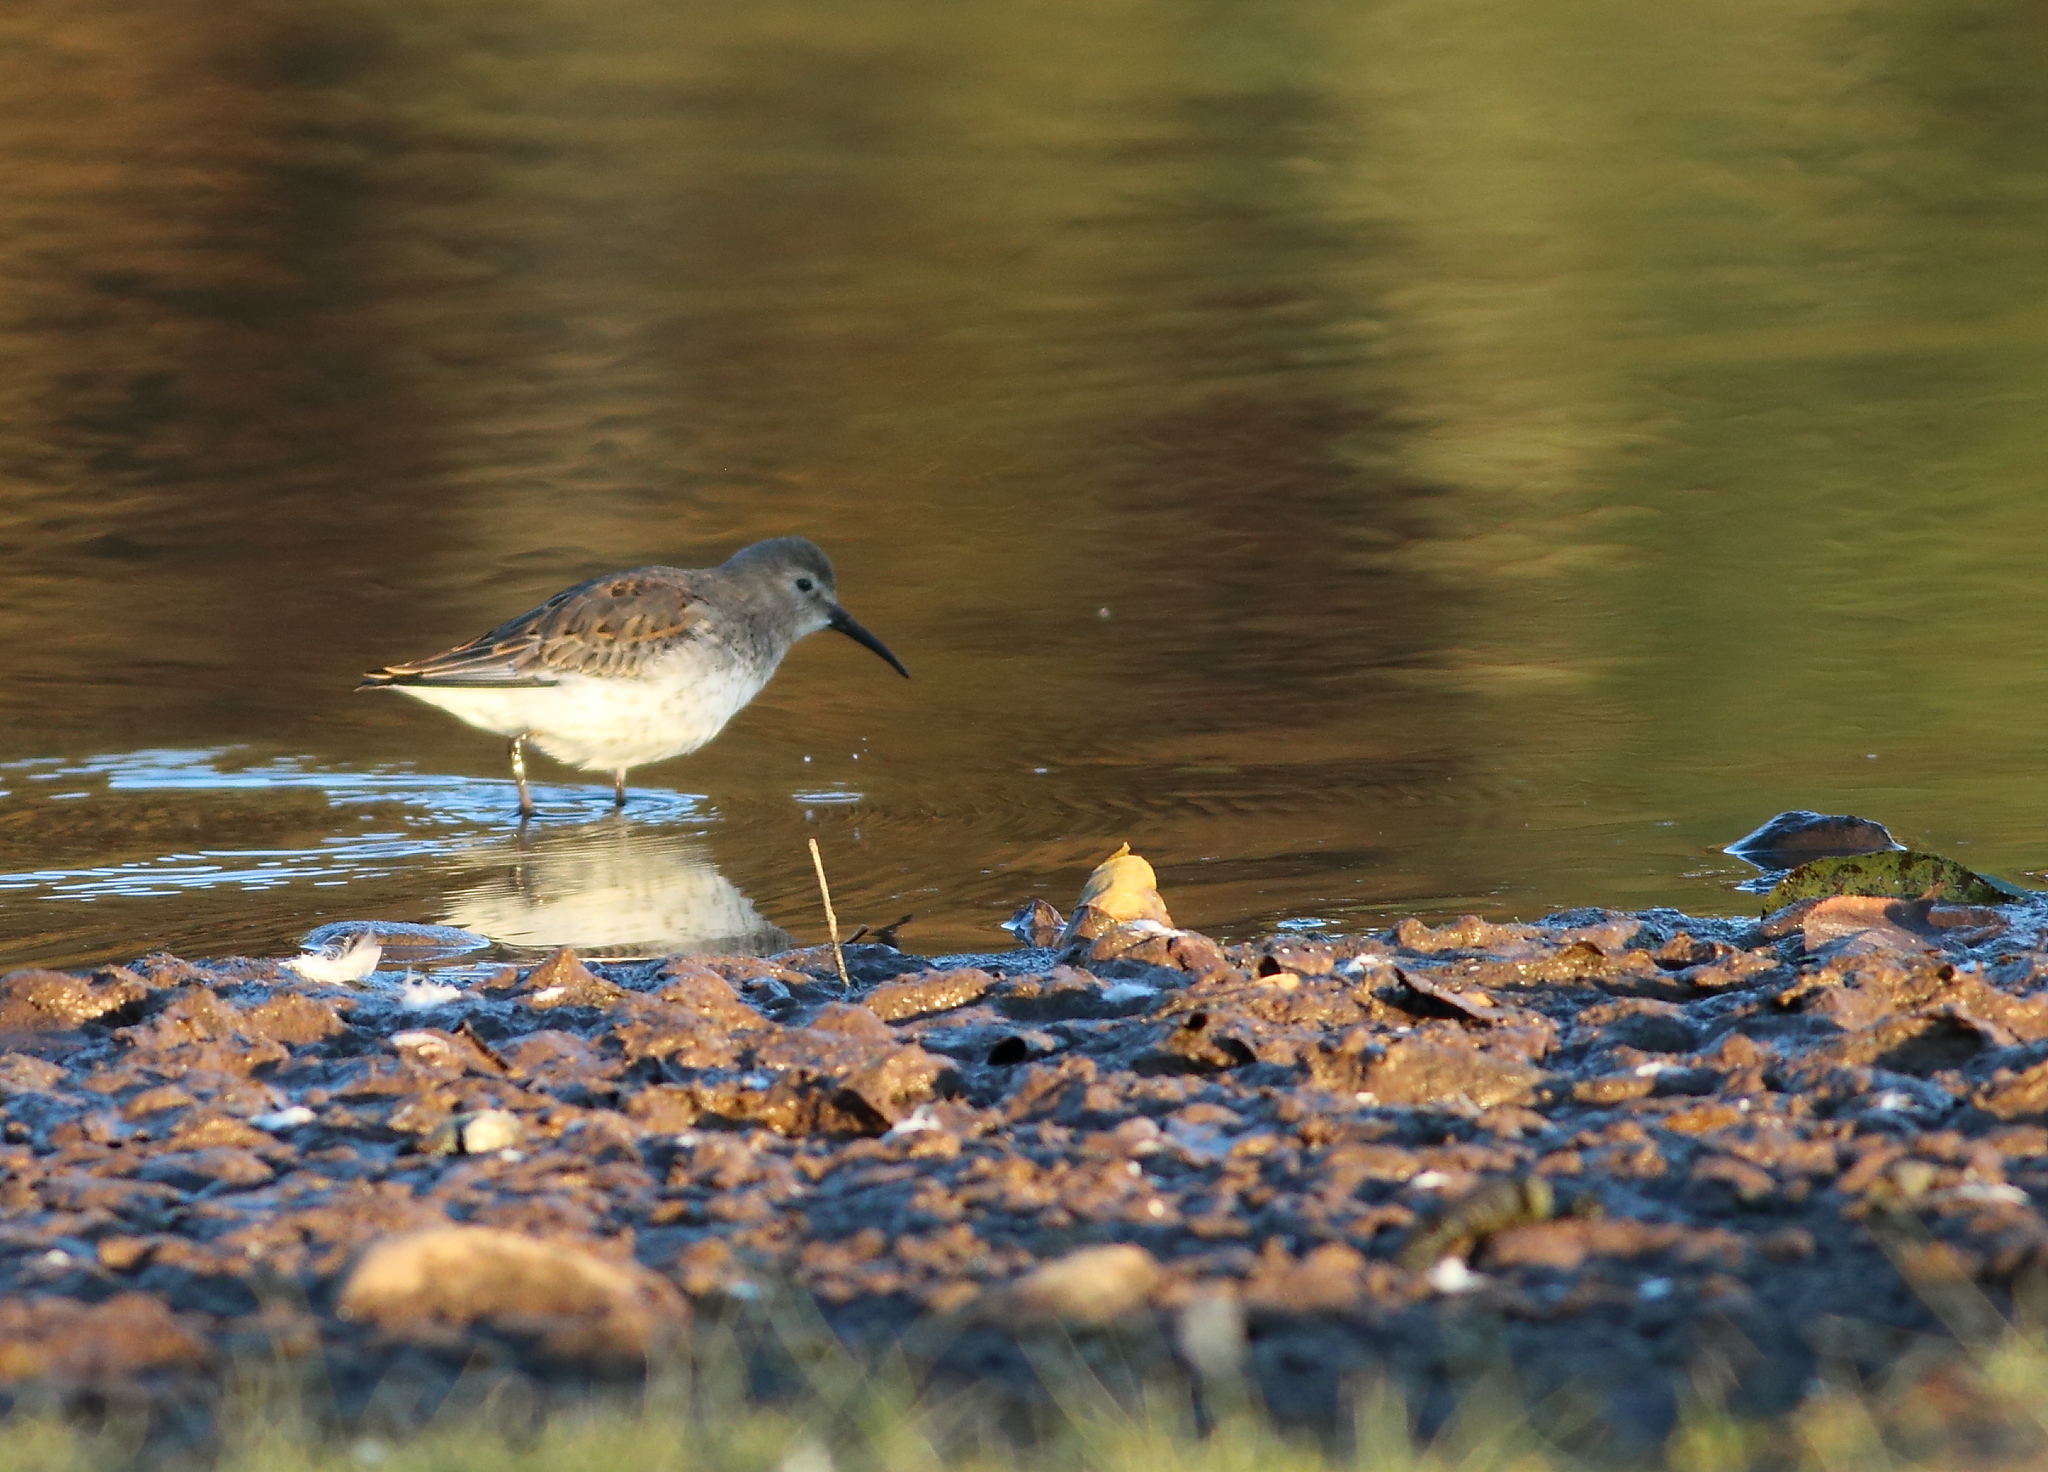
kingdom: Animalia
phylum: Chordata
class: Aves
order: Charadriiformes
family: Scolopacidae
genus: Calidris
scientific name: Calidris alpina
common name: Dunlin
